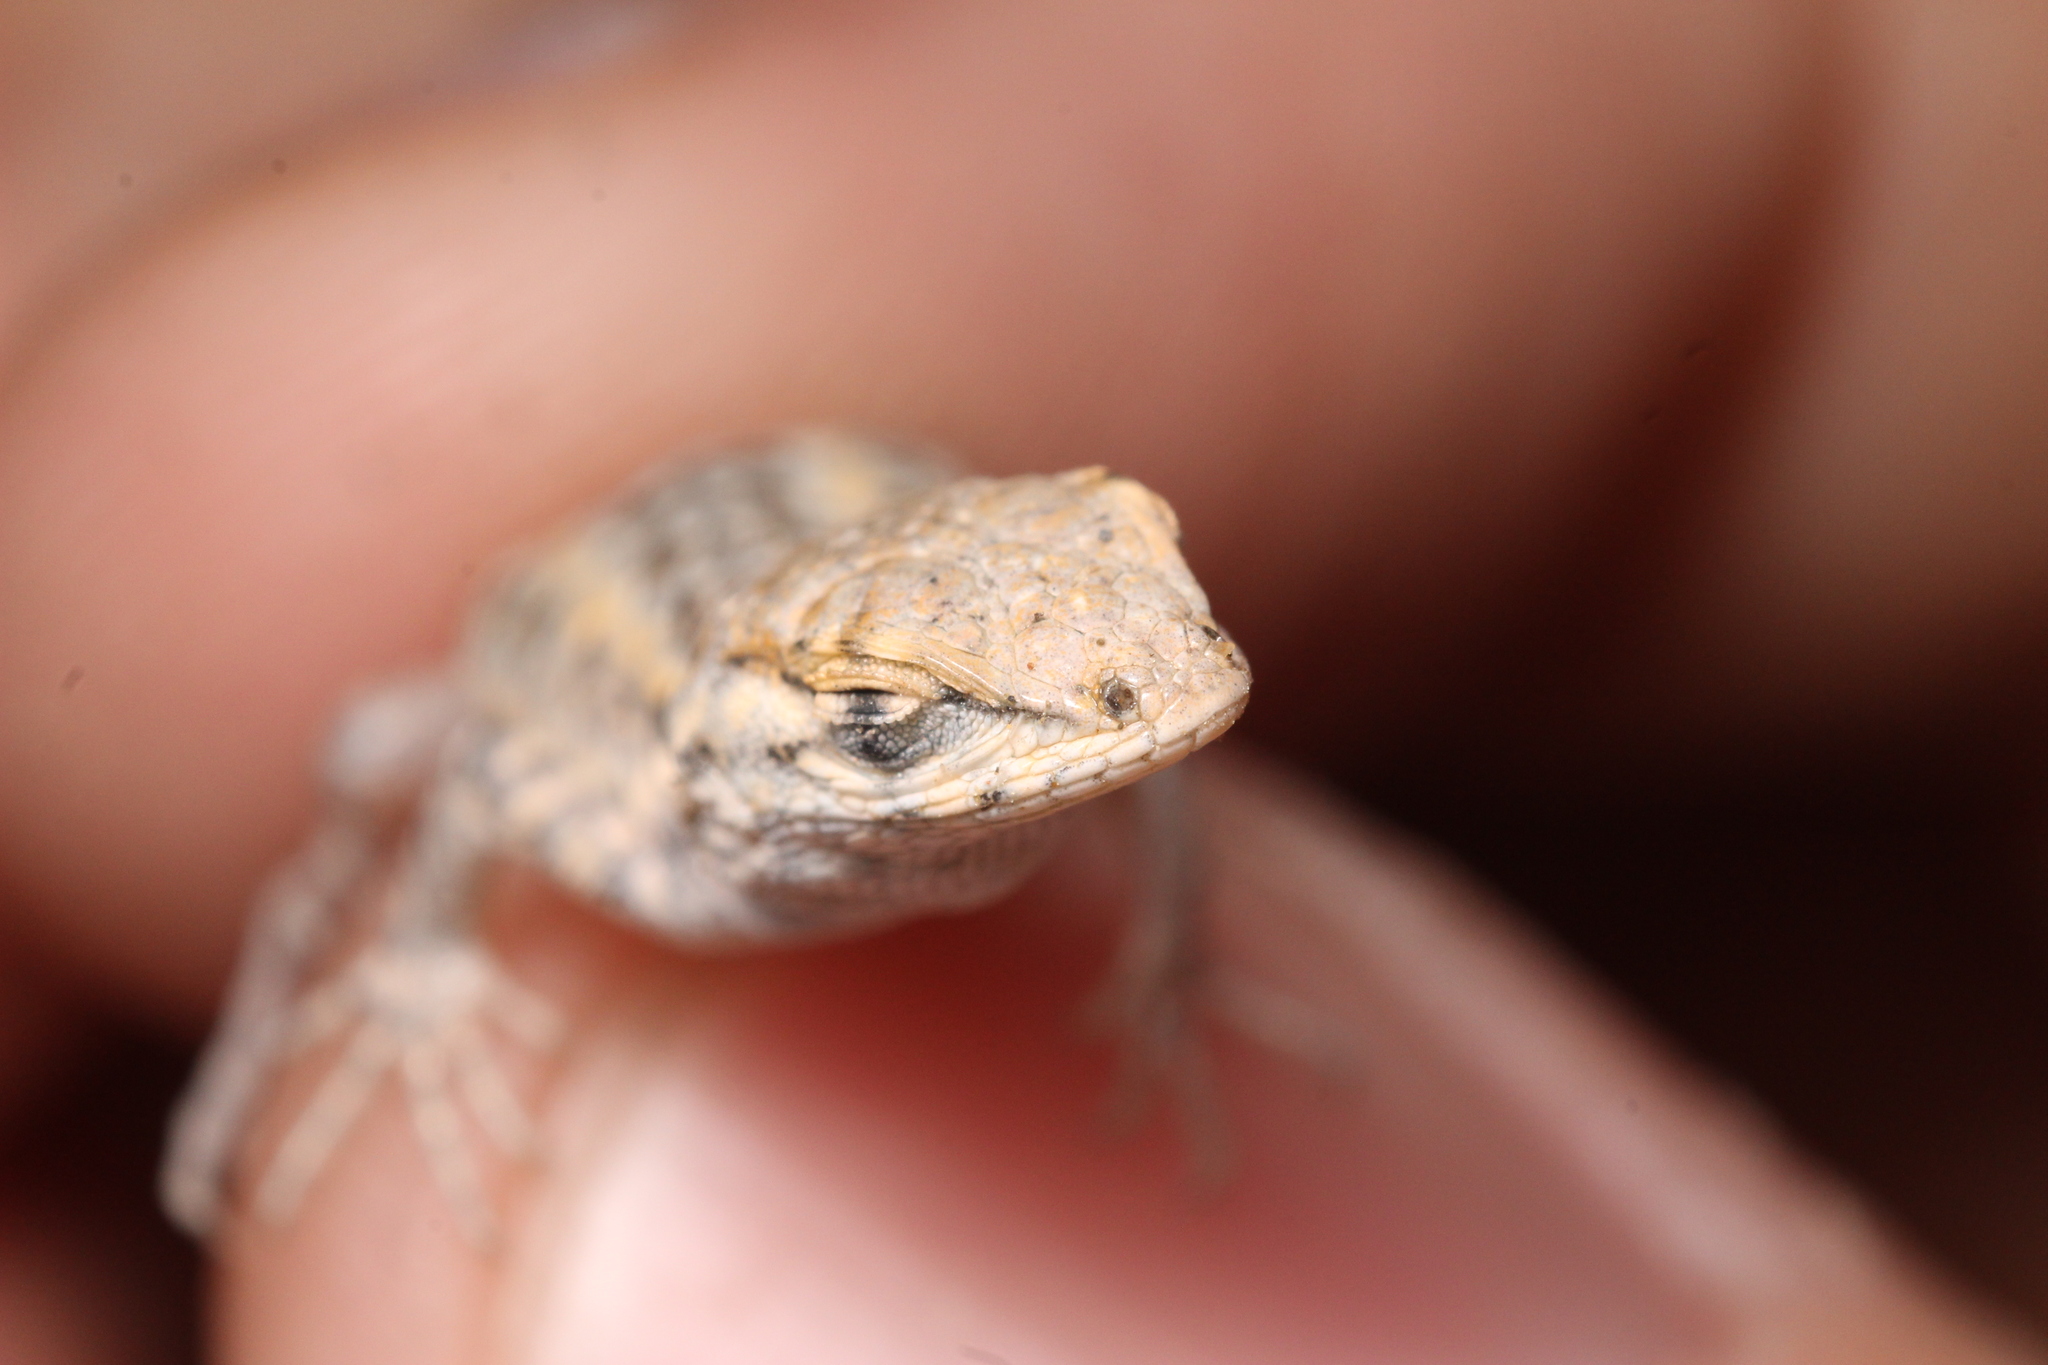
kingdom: Animalia
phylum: Chordata
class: Squamata
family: Phrynosomatidae
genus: Uta
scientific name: Uta stansburiana
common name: Side-blotched lizard
